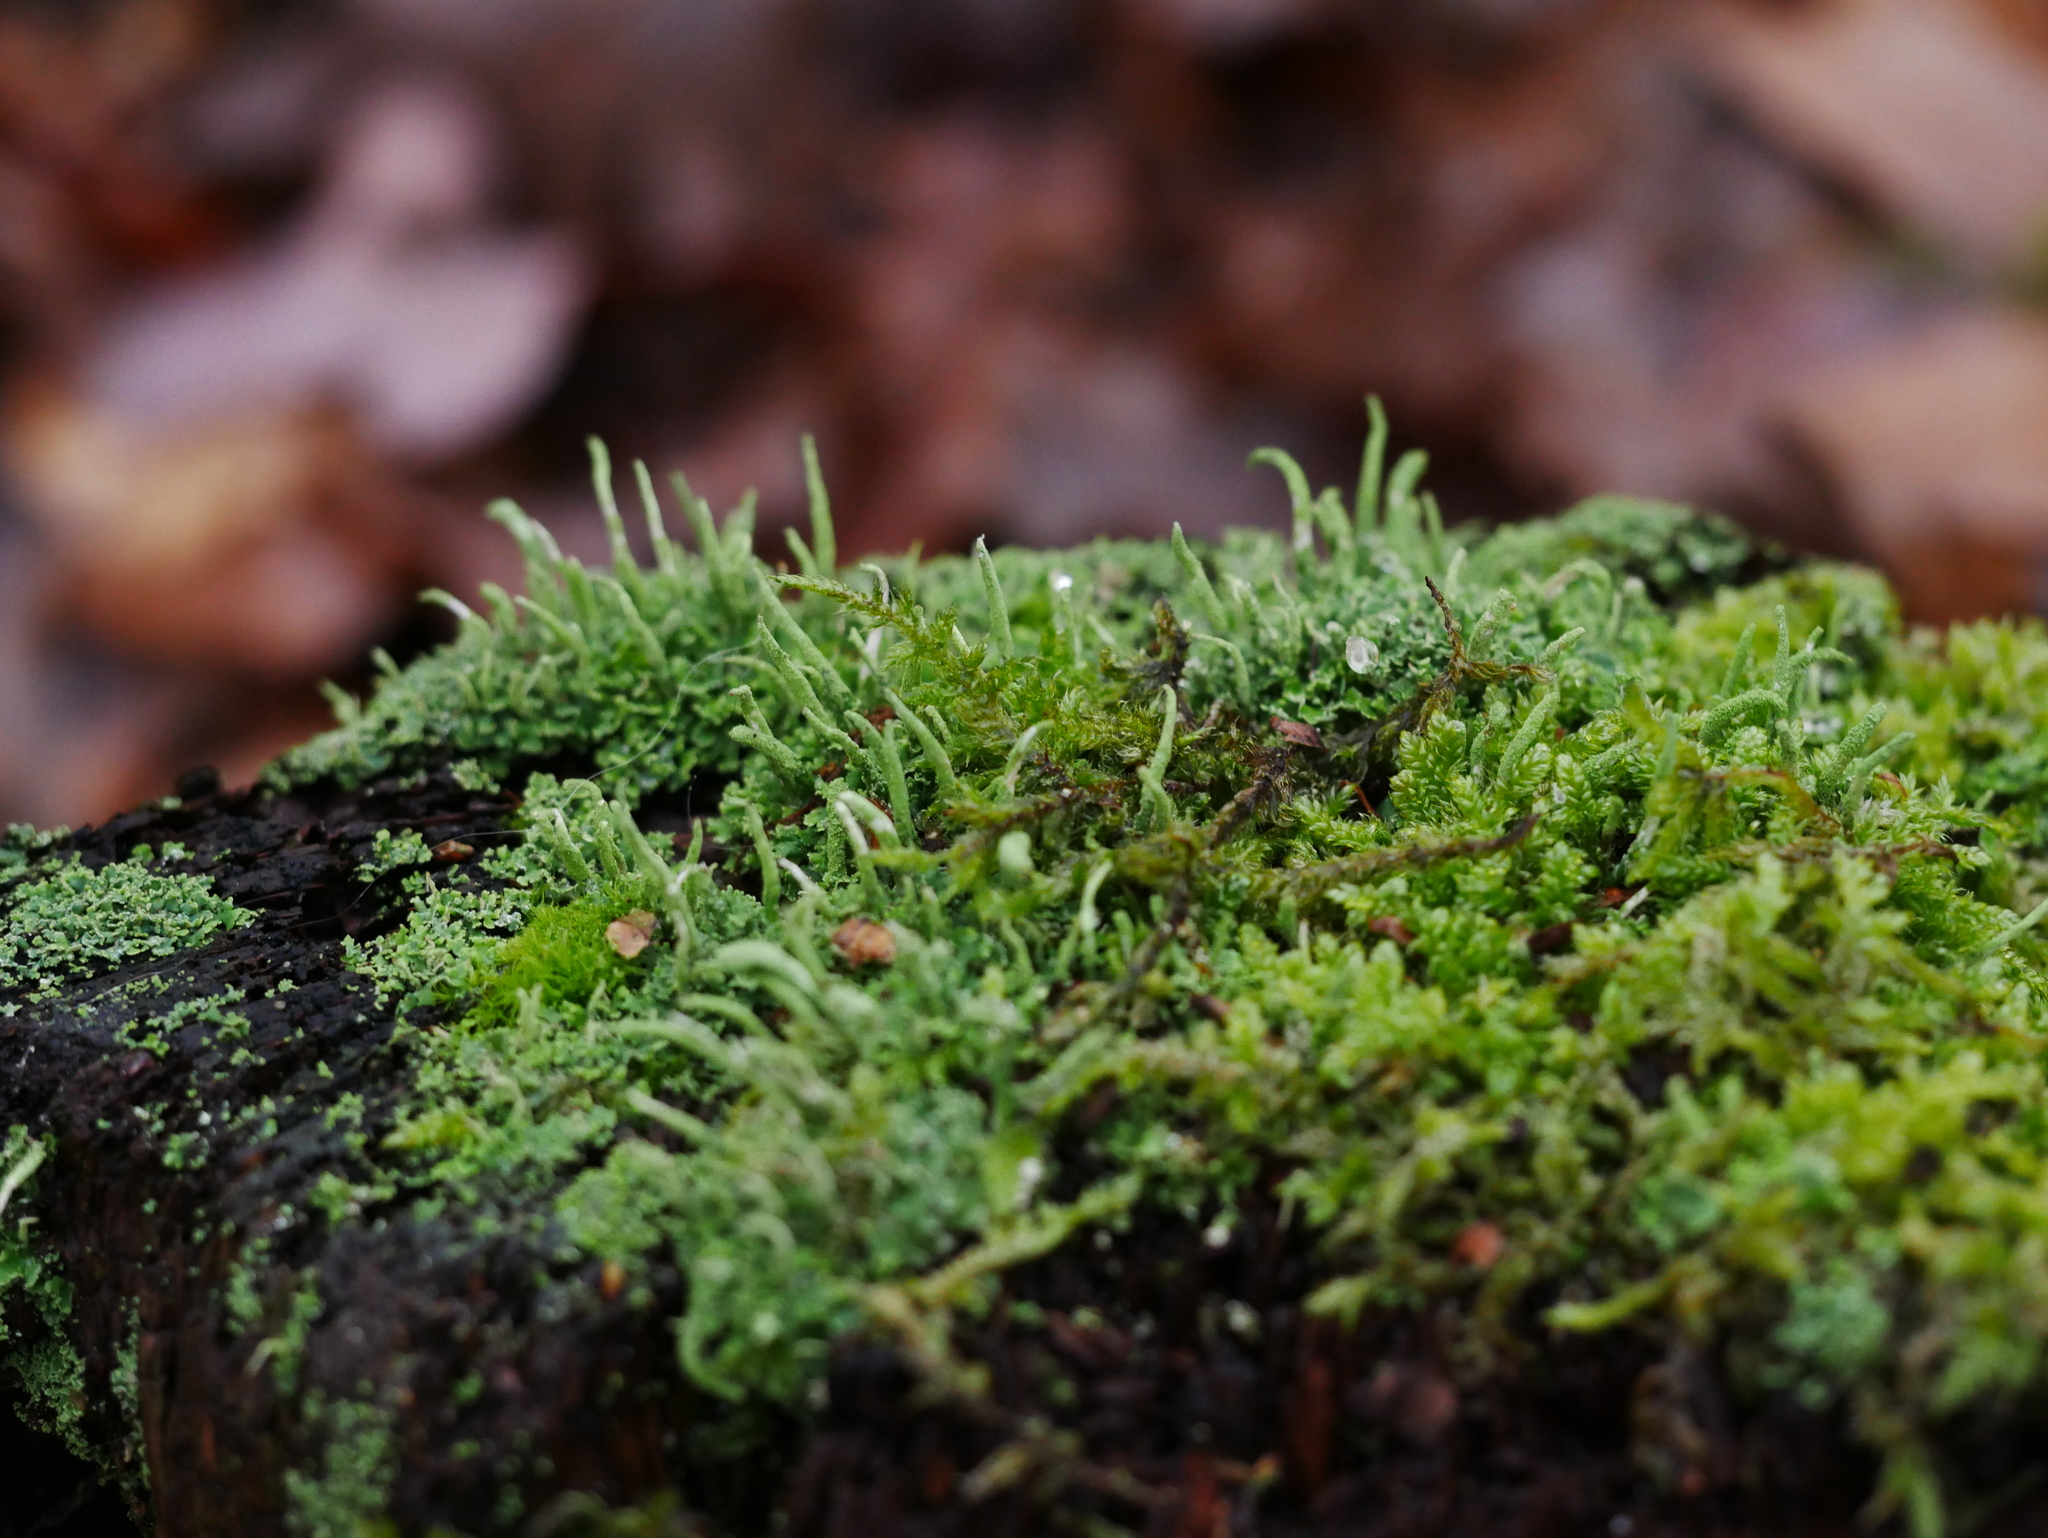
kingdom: Fungi
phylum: Ascomycota
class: Lecanoromycetes
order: Lecanorales
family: Cladoniaceae
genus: Cladonia
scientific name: Cladonia coniocraea
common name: Common powderhorn
